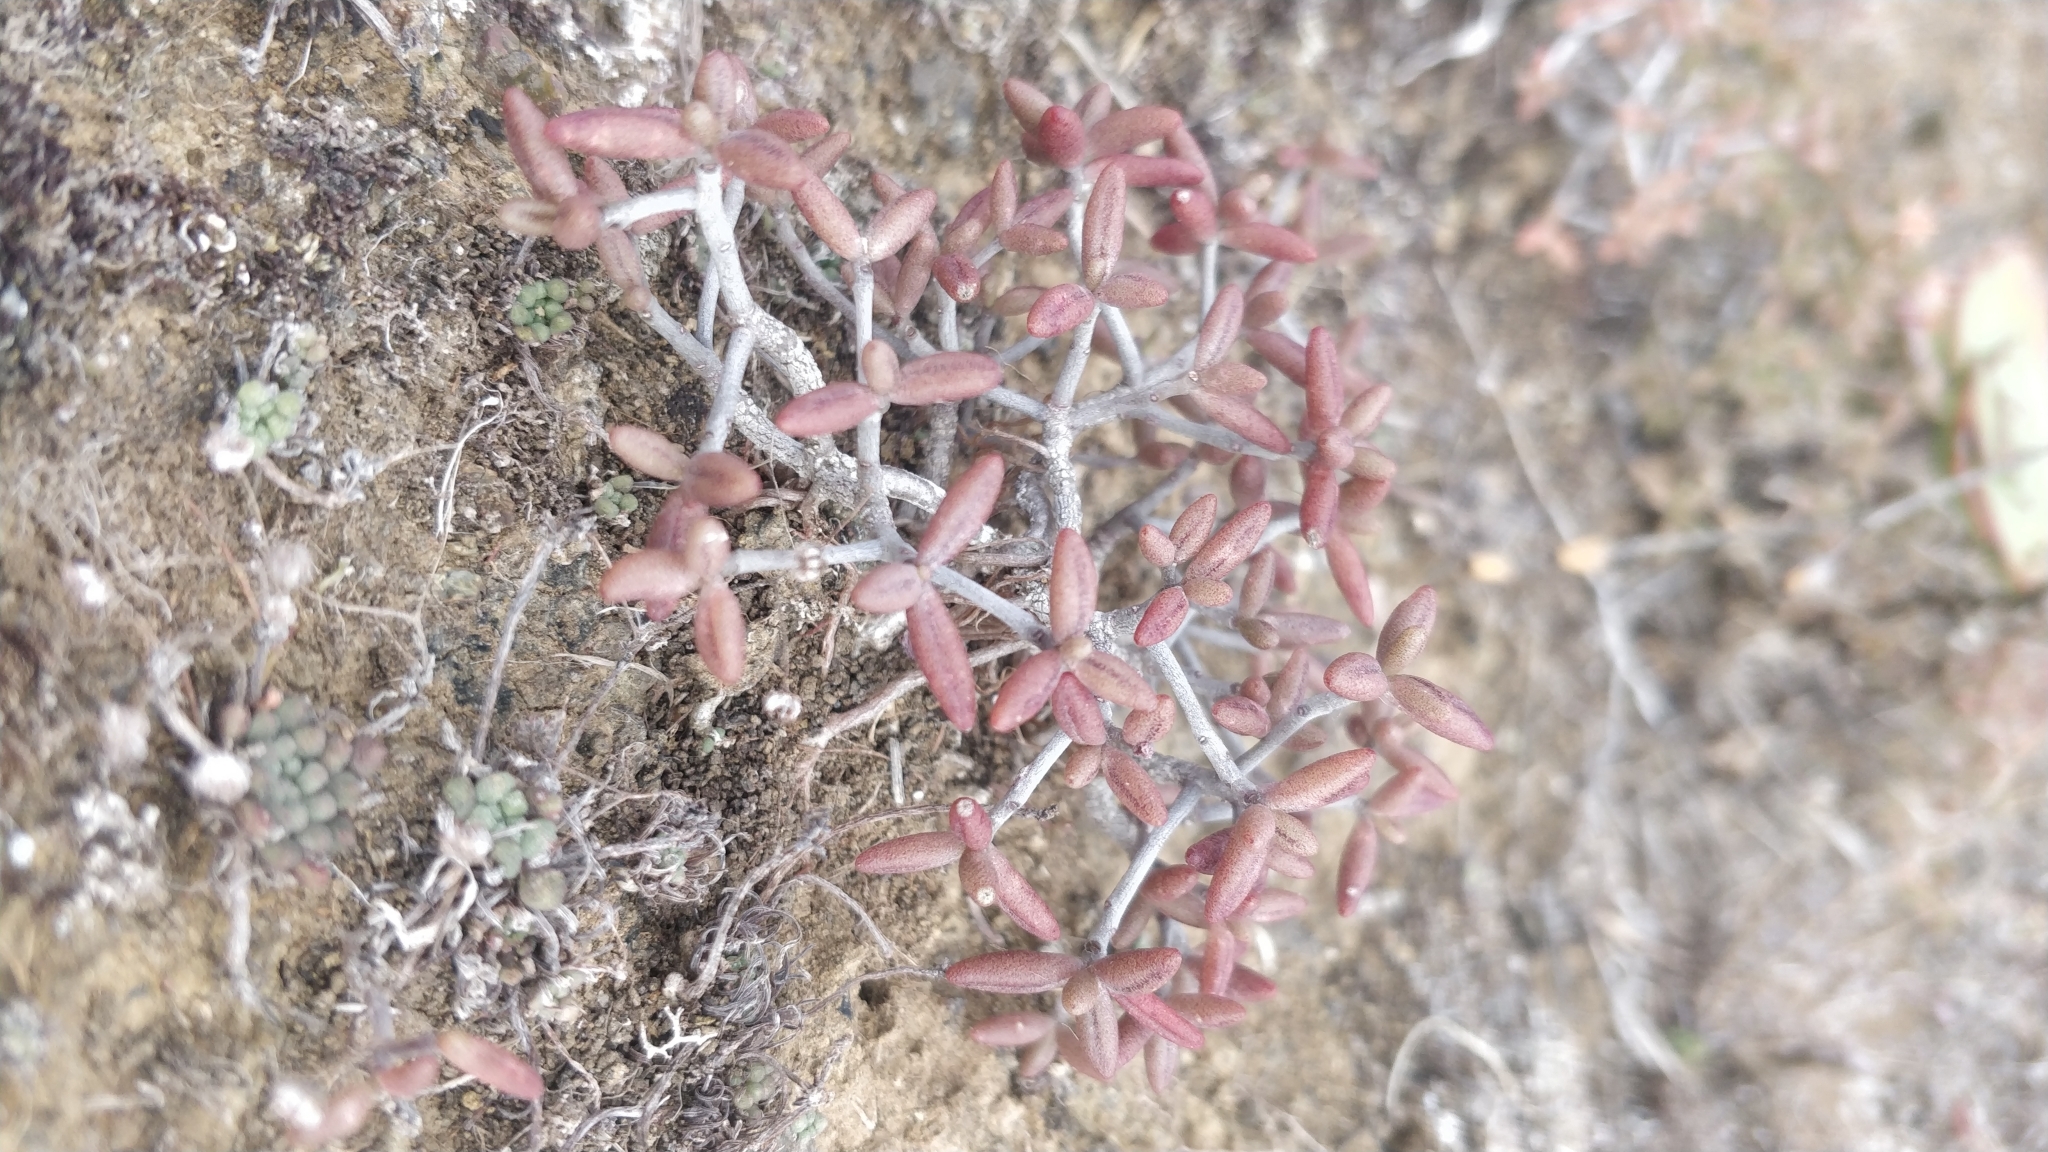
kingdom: Plantae
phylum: Tracheophyta
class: Magnoliopsida
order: Saxifragales
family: Crassulaceae
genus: Monanthes
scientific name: Monanthes anagensis
